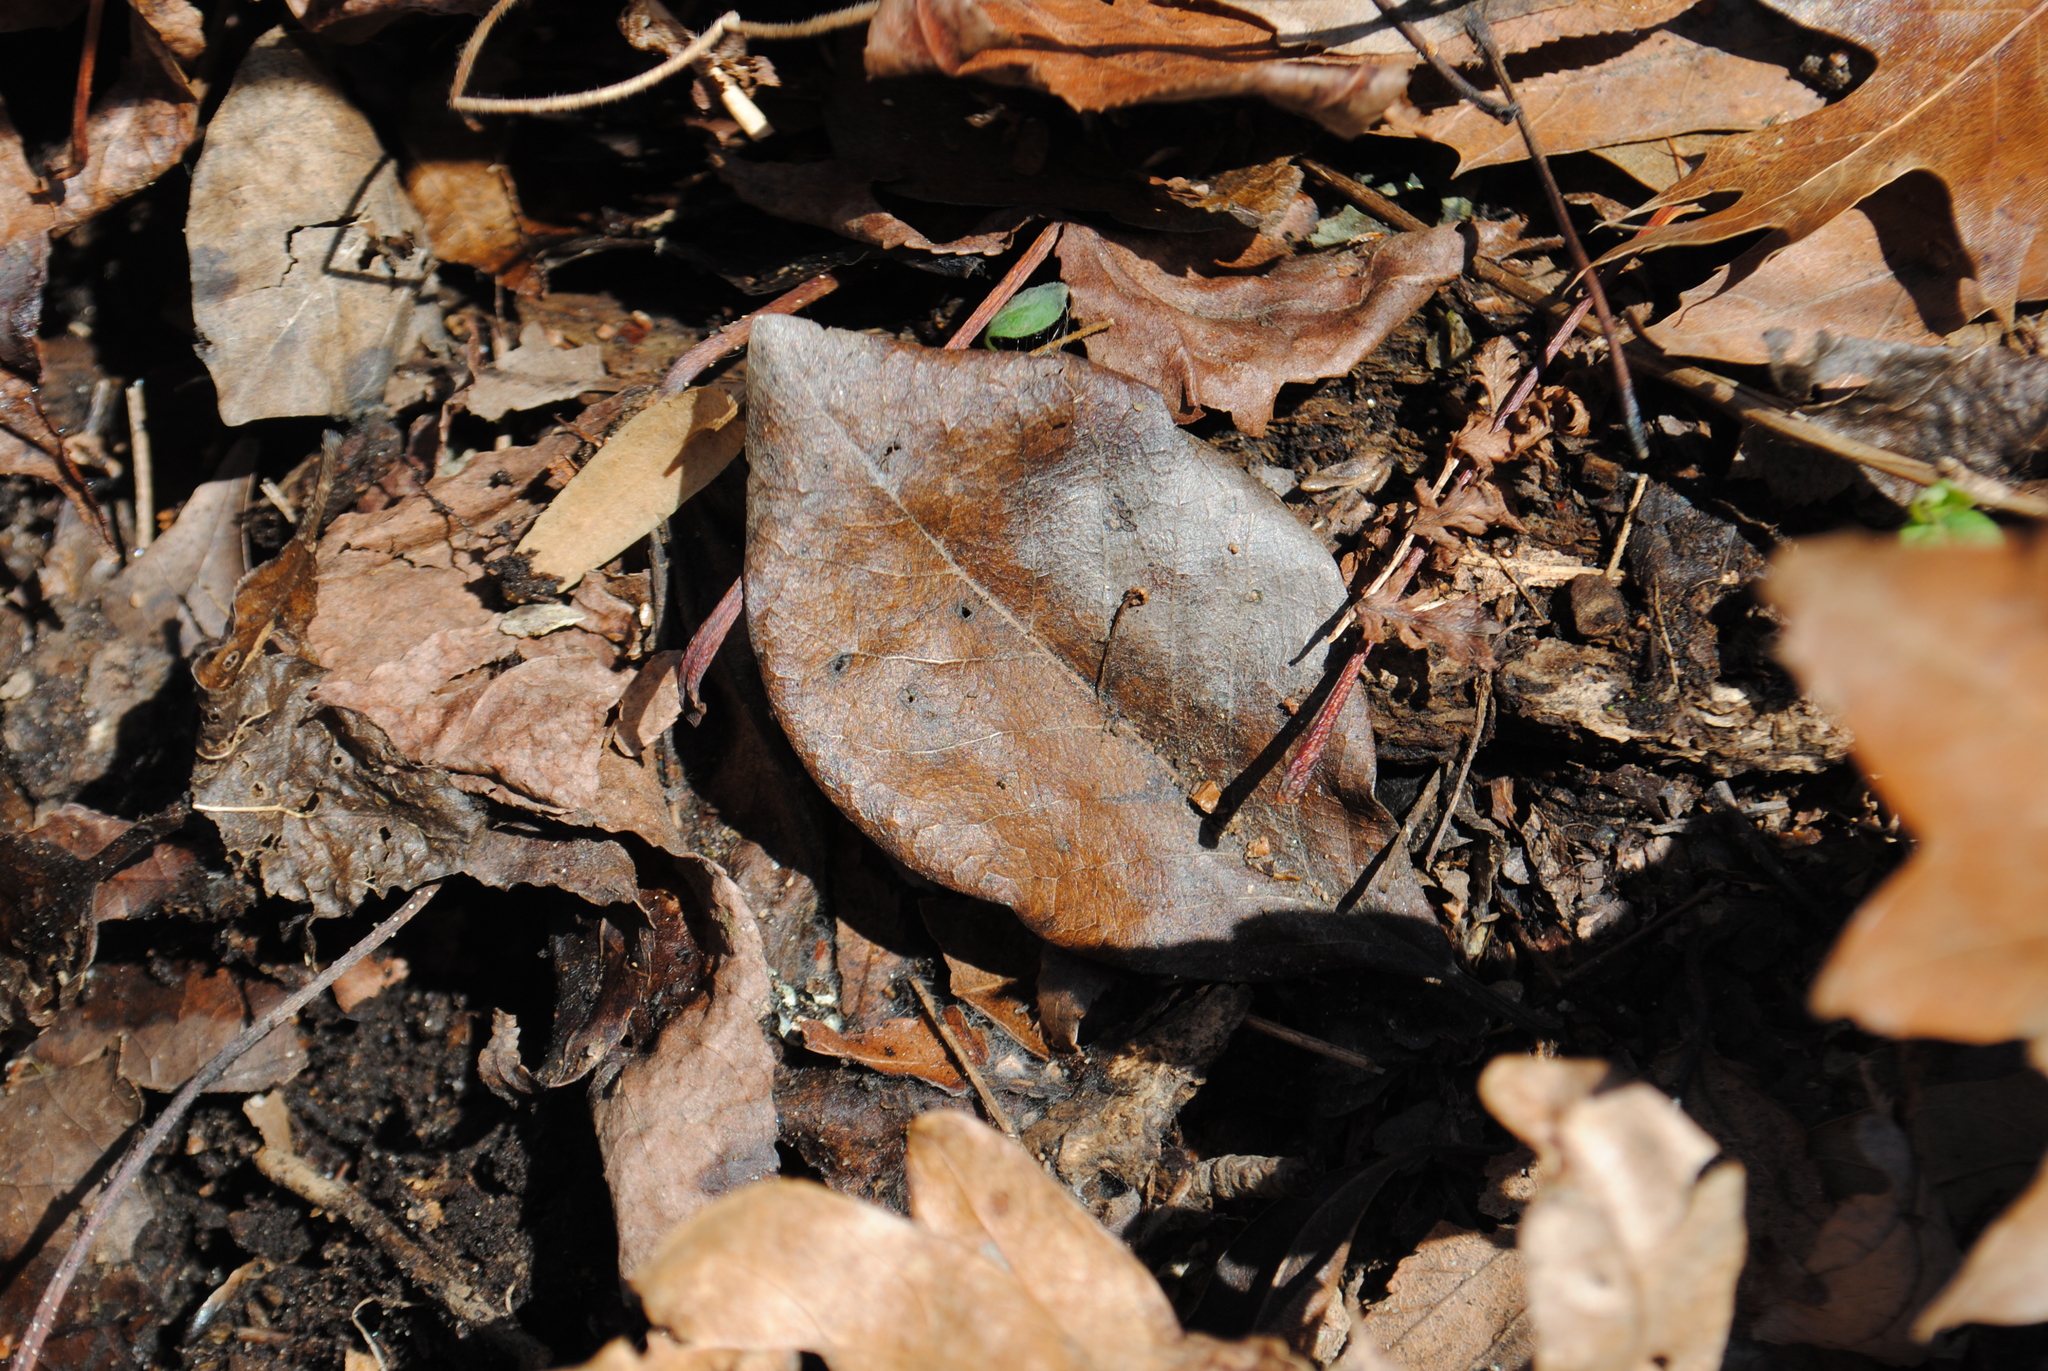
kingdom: Plantae
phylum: Tracheophyta
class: Magnoliopsida
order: Cornales
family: Nyssaceae
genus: Nyssa
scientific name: Nyssa sylvatica
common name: Black tupelo
